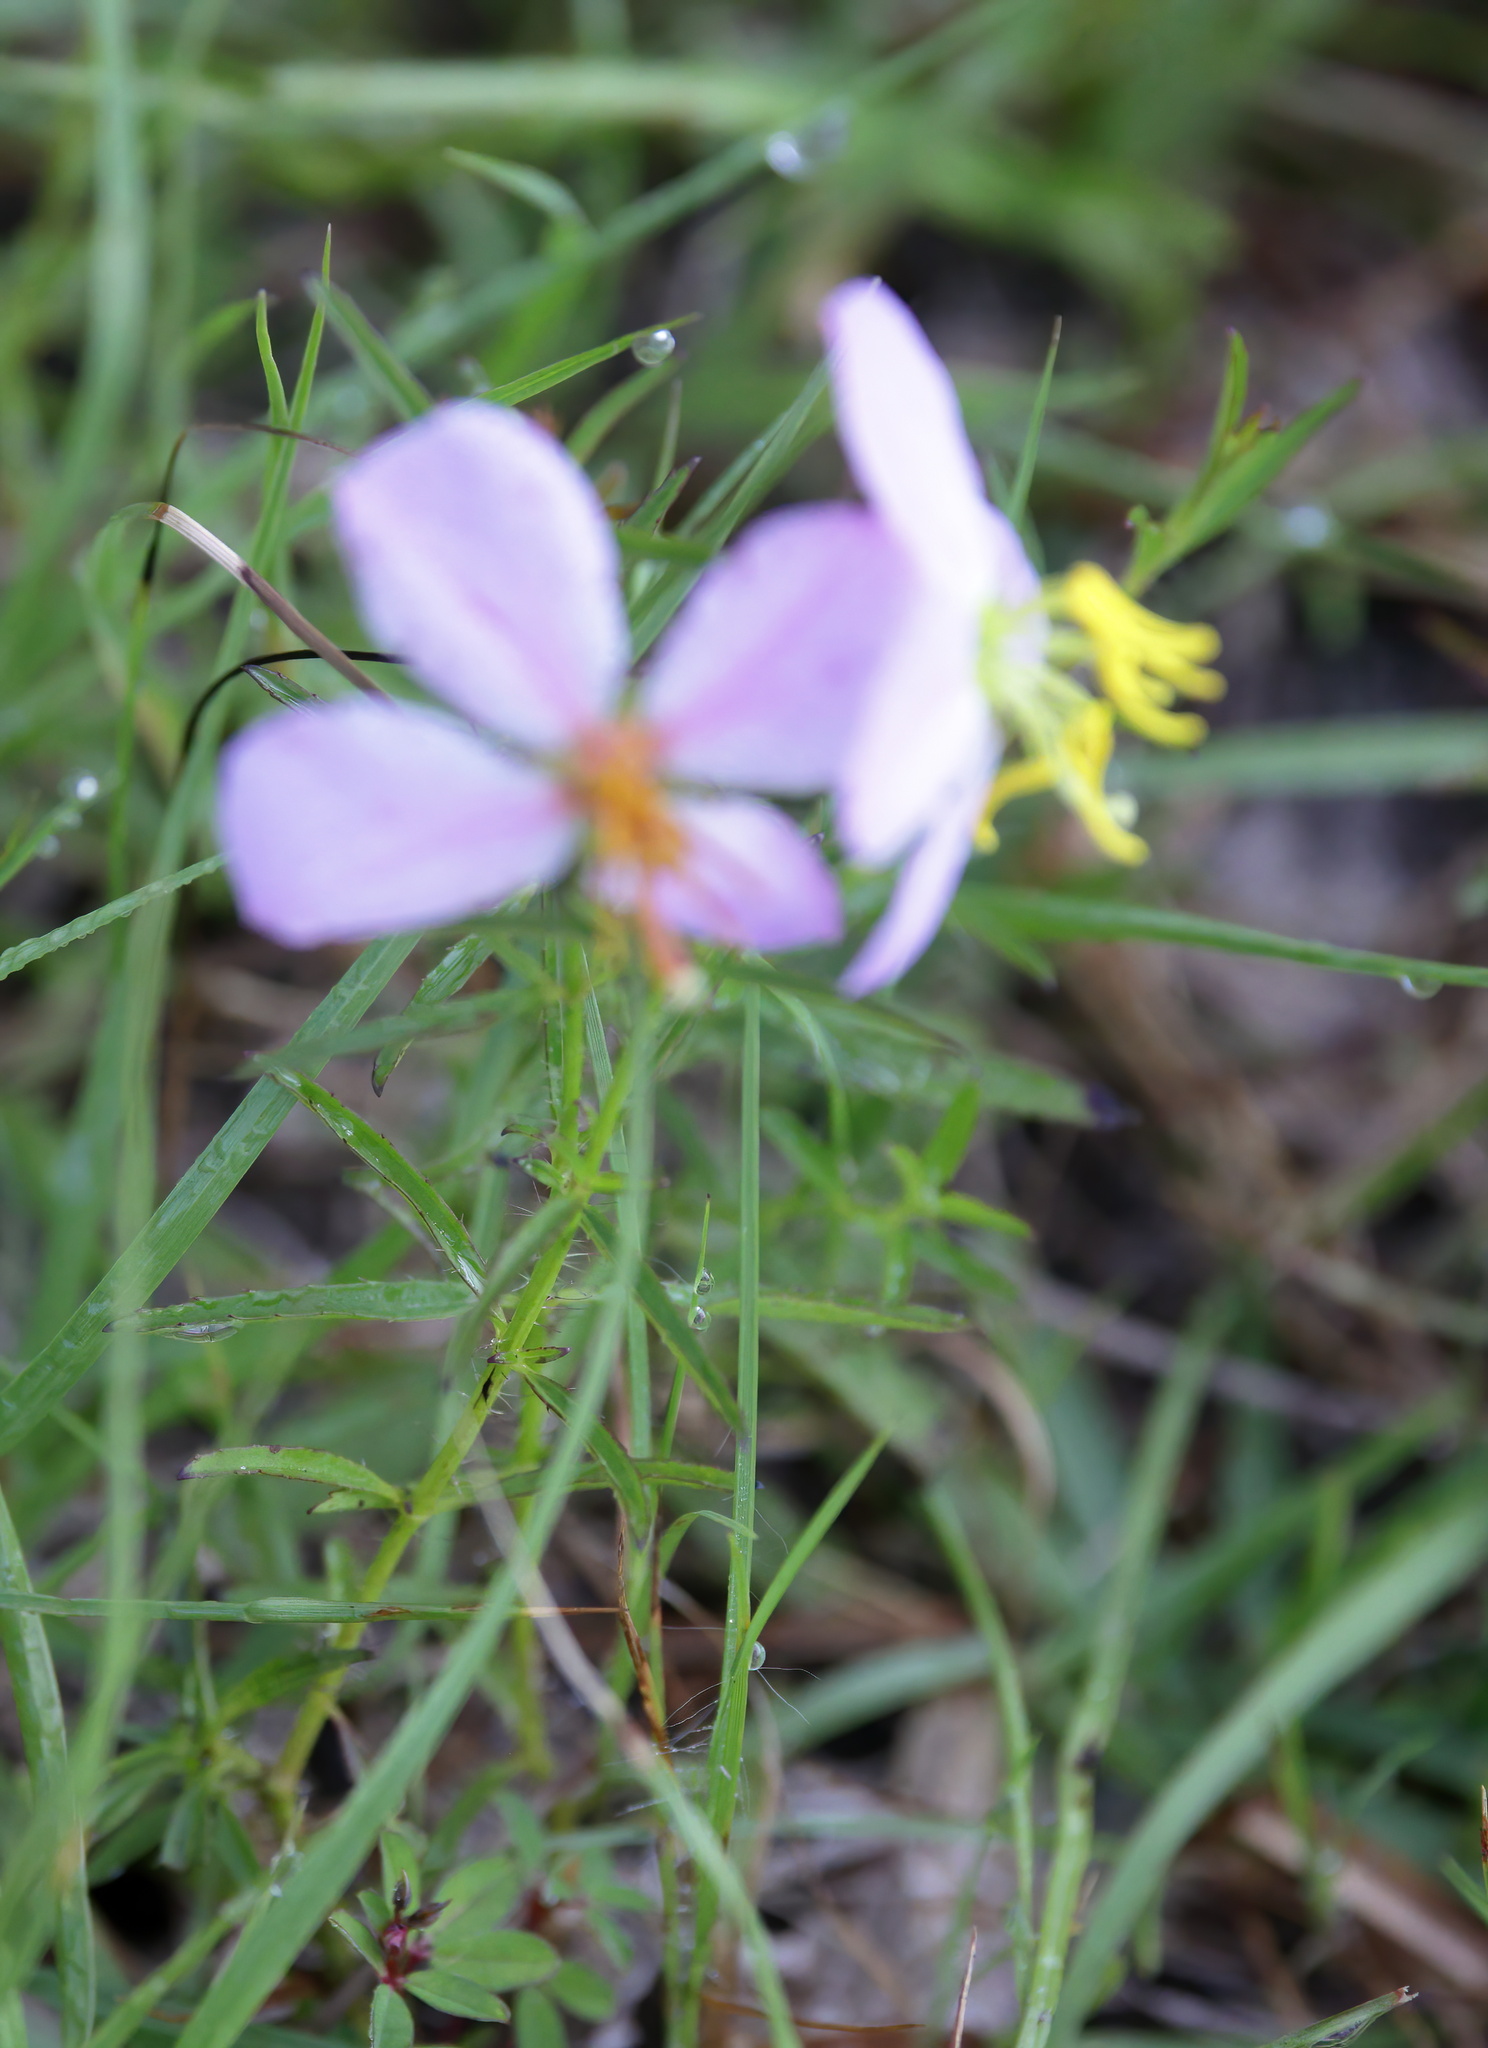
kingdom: Plantae
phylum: Tracheophyta
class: Magnoliopsida
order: Myrtales
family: Melastomataceae
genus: Rhexia
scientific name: Rhexia mariana
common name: Dull meadow-pitcher
